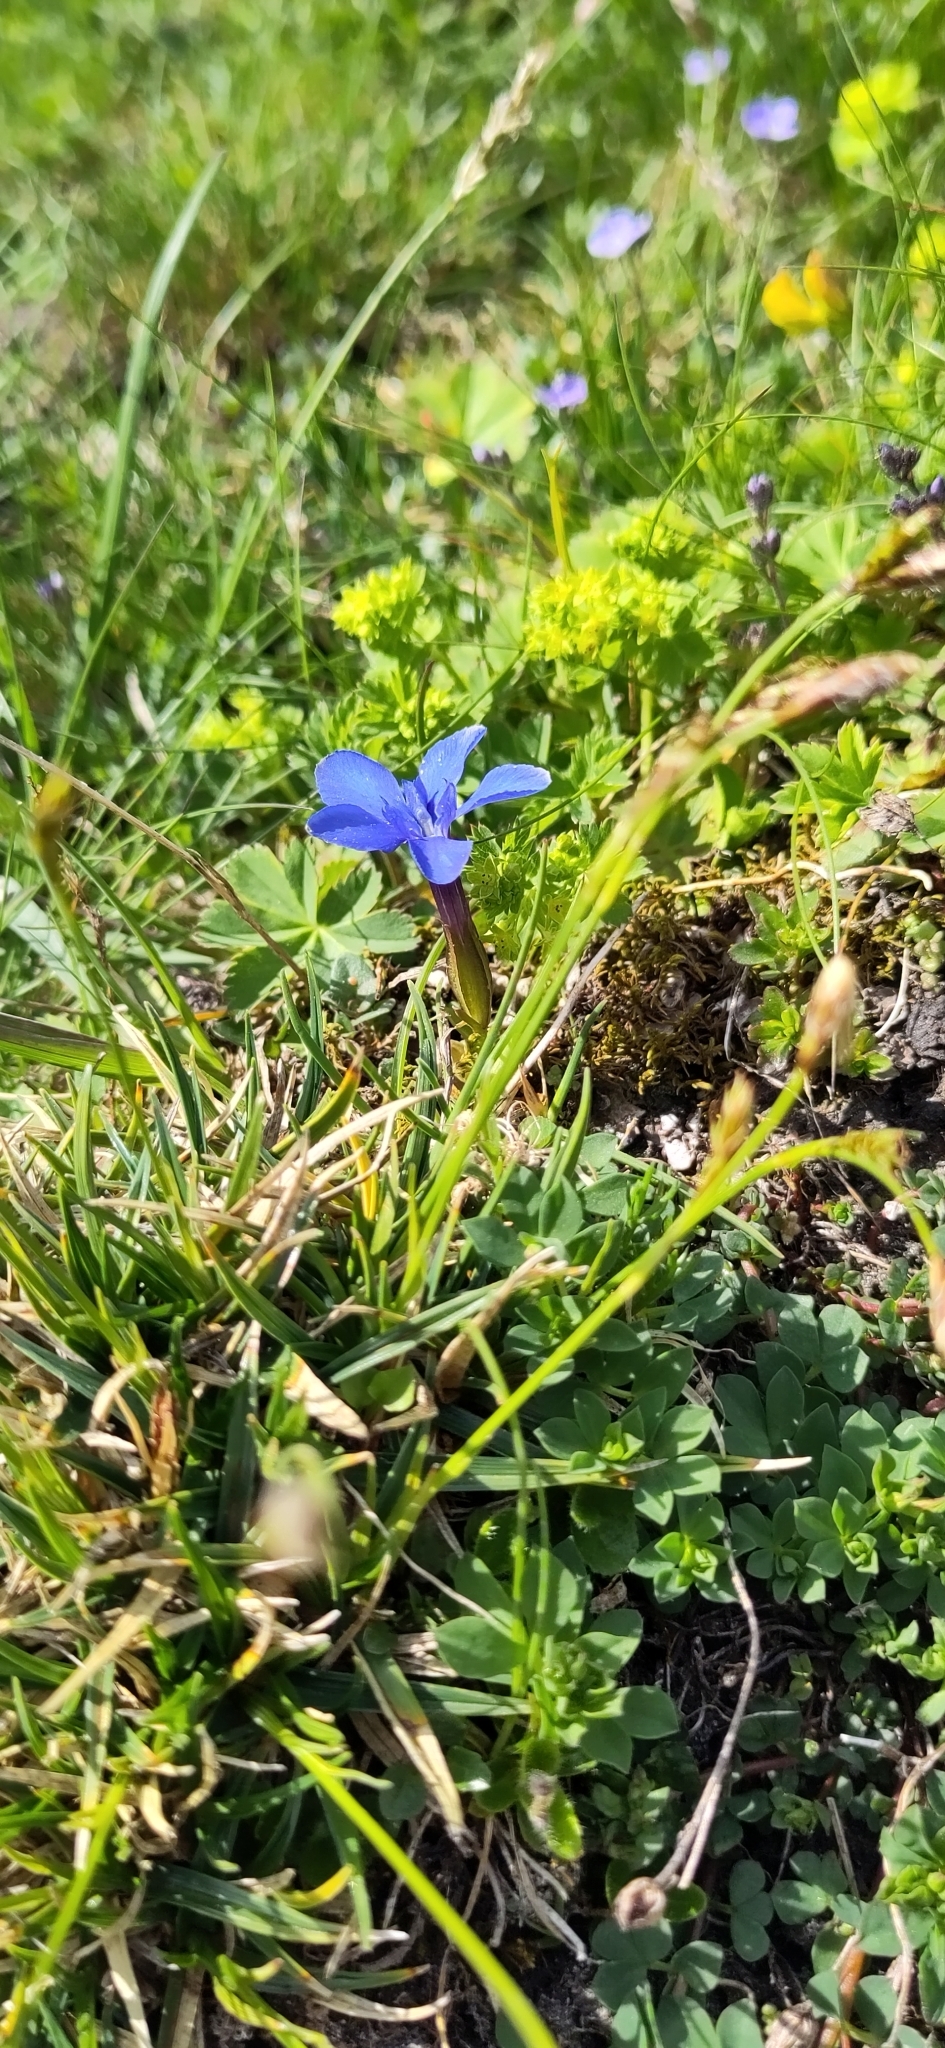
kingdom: Plantae
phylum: Tracheophyta
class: Magnoliopsida
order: Gentianales
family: Gentianaceae
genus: Gentiana
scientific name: Gentiana verna
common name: Spring gentian
